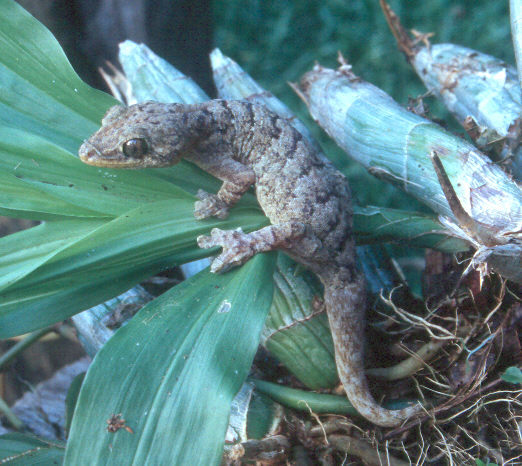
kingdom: Animalia
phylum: Chordata
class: Squamata
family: Phyllodactylidae
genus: Thecadactylus
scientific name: Thecadactylus rapicauda
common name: Turnip-tailed gecko
